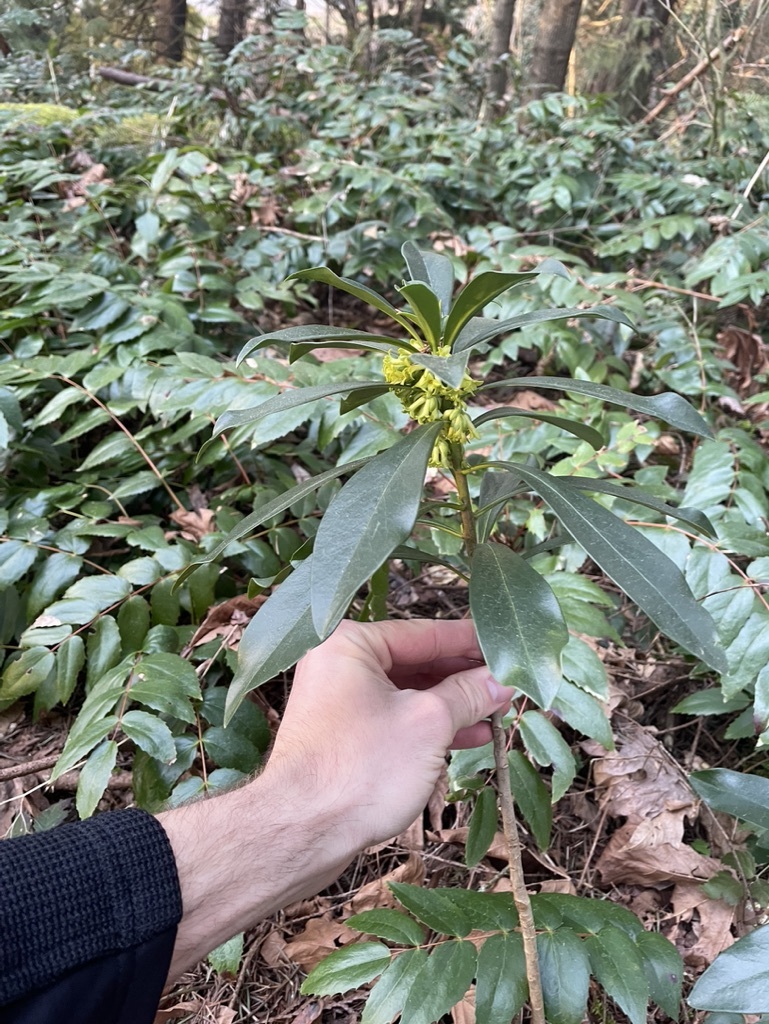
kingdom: Plantae
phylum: Tracheophyta
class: Magnoliopsida
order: Malvales
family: Thymelaeaceae
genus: Daphne
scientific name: Daphne laureola
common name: Spurge-laurel
